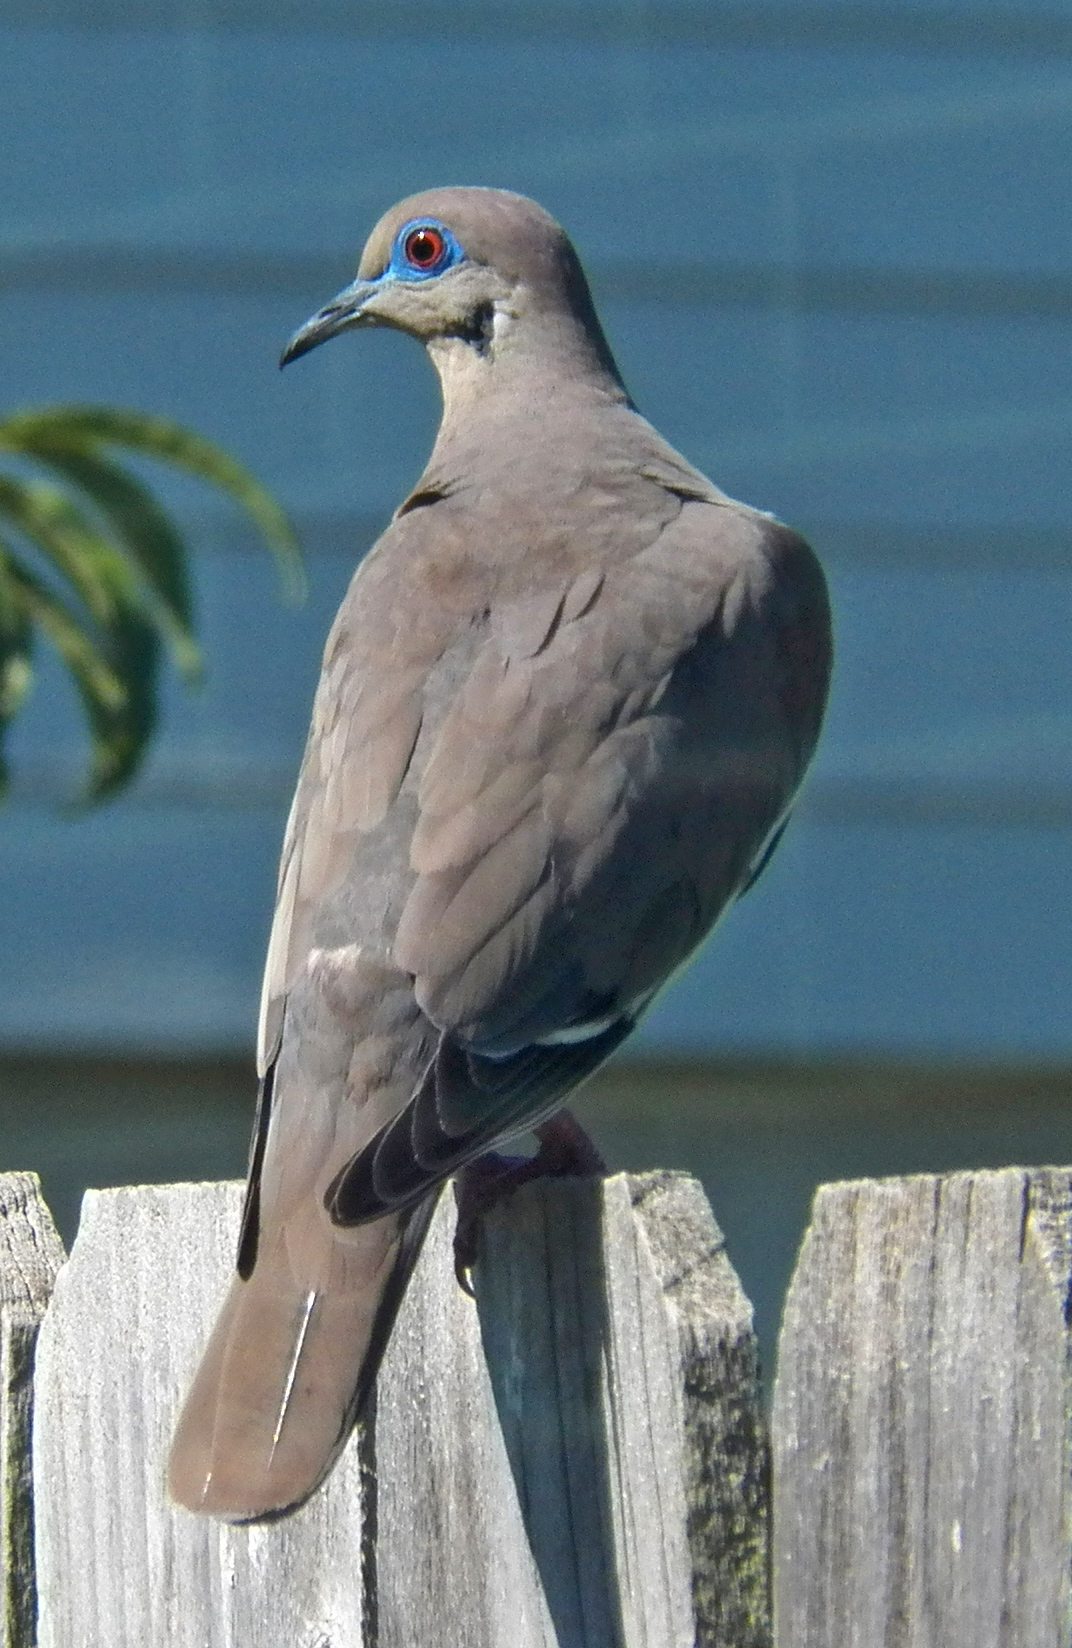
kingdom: Animalia
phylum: Chordata
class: Aves
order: Columbiformes
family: Columbidae
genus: Zenaida
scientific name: Zenaida asiatica
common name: White-winged dove
